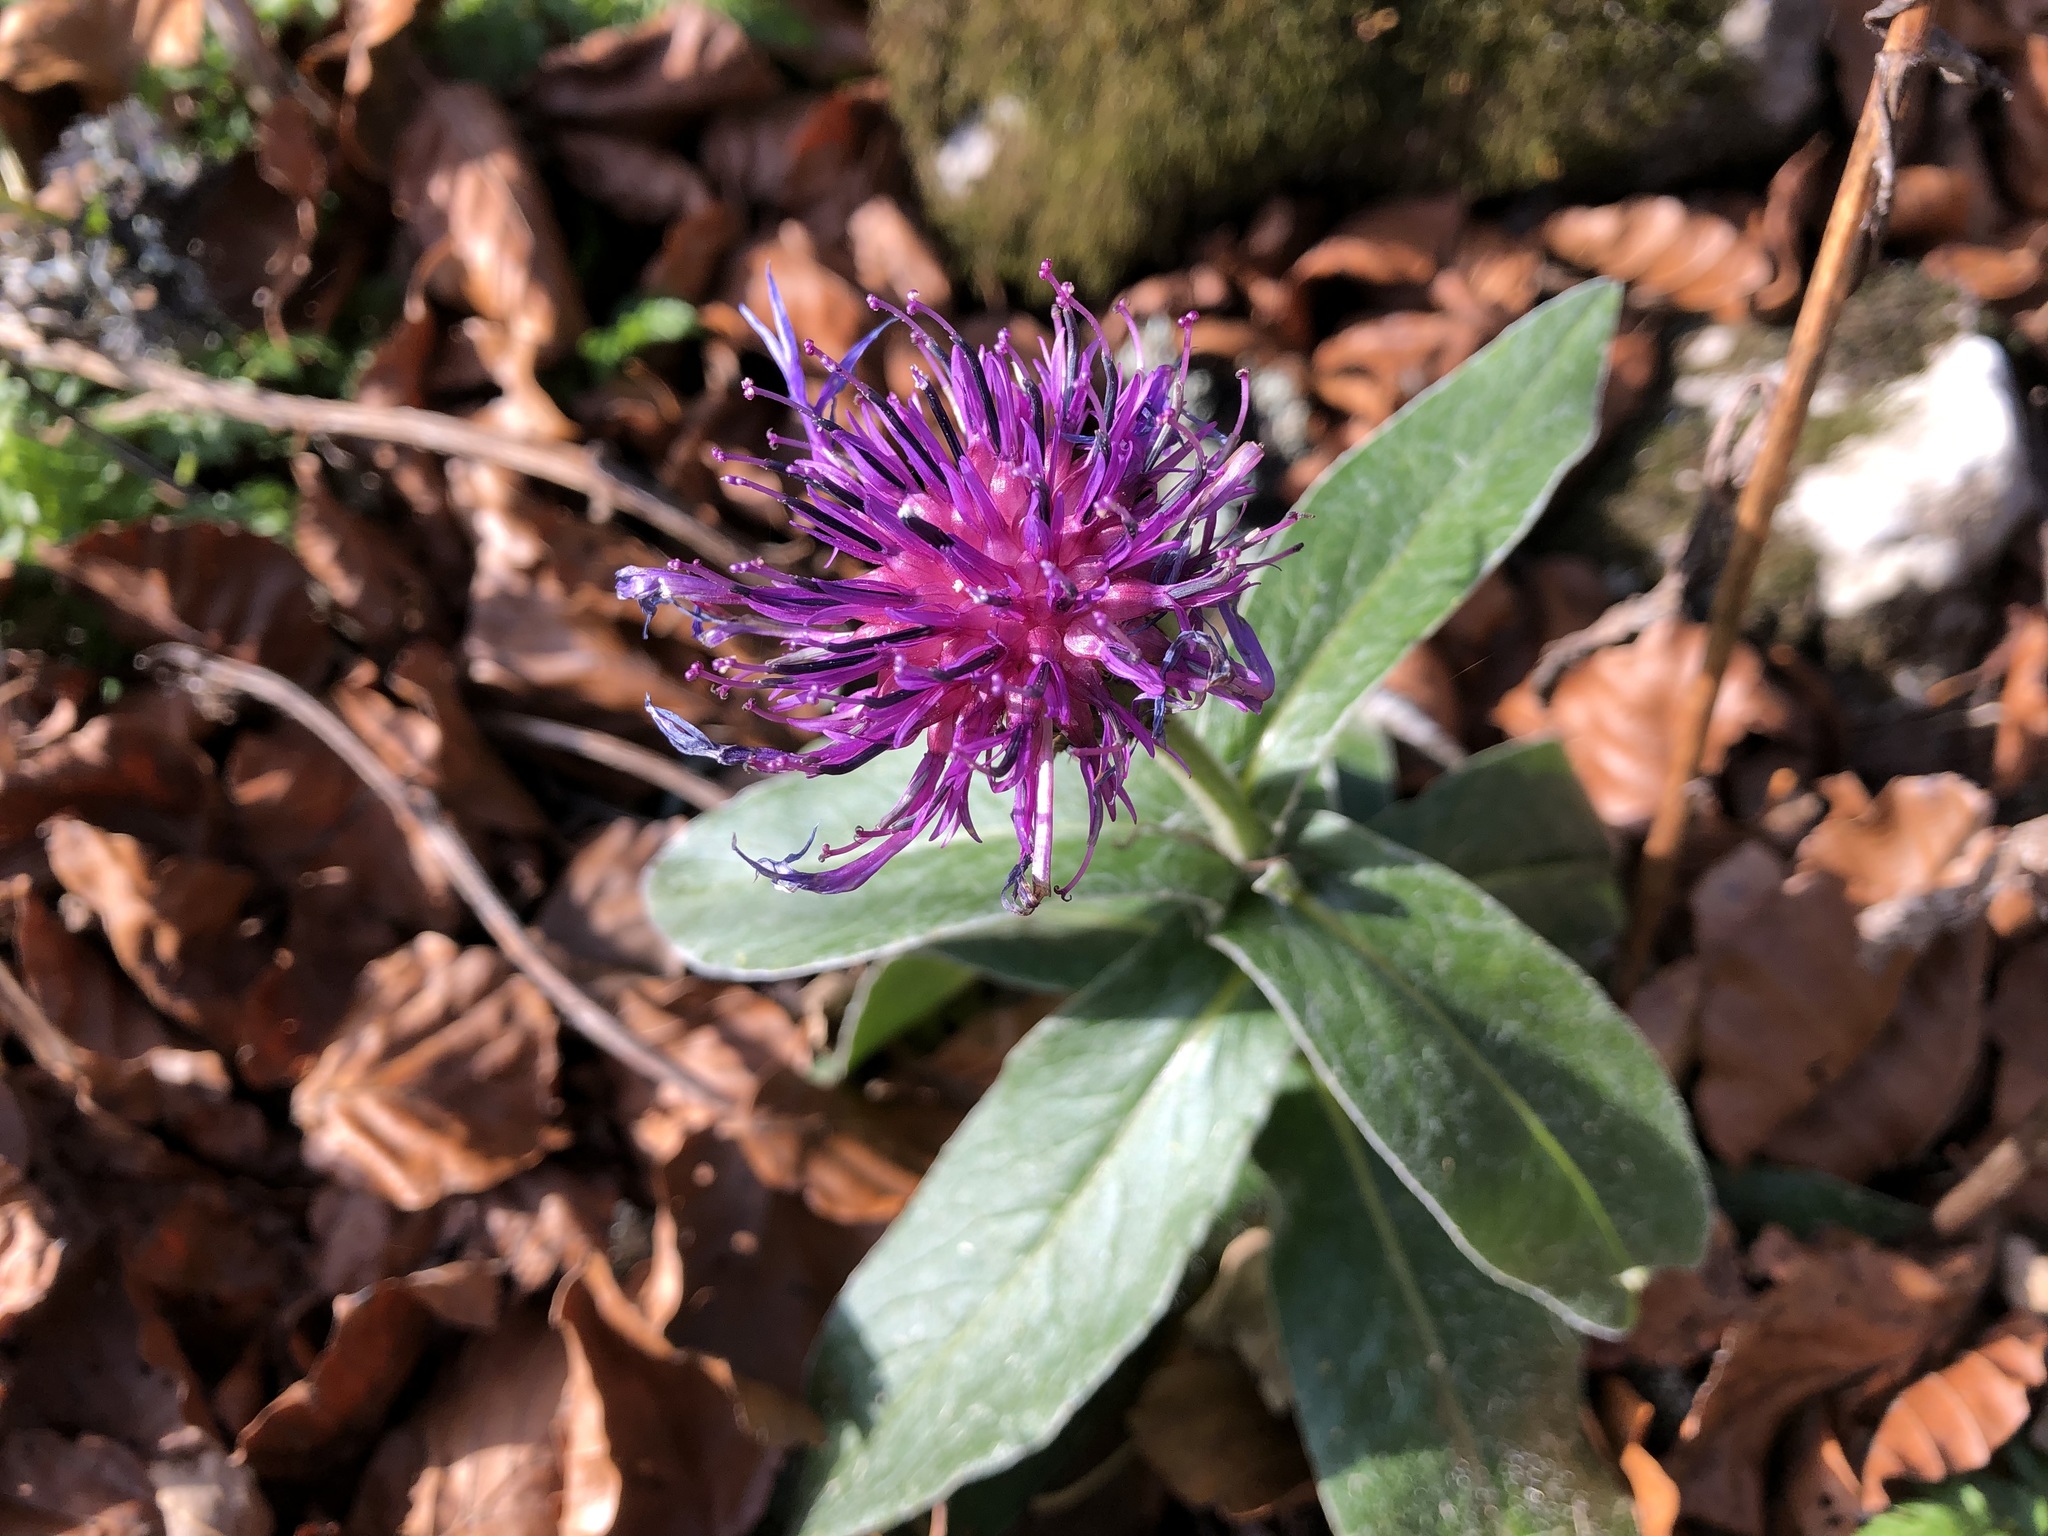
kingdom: Plantae
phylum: Tracheophyta
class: Magnoliopsida
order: Asterales
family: Asteraceae
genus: Centaurea
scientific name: Centaurea montana
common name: Perennial cornflower
